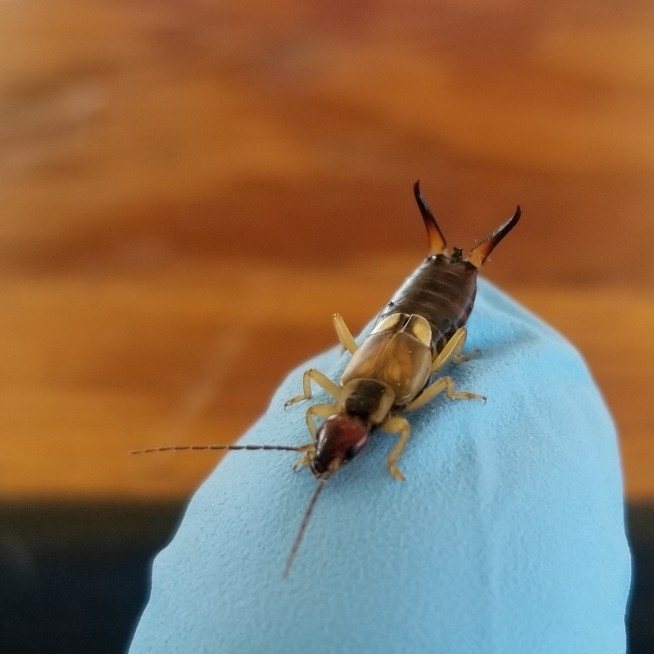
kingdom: Animalia
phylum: Arthropoda
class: Insecta
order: Dermaptera
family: Forficulidae
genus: Forficula
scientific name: Forficula
